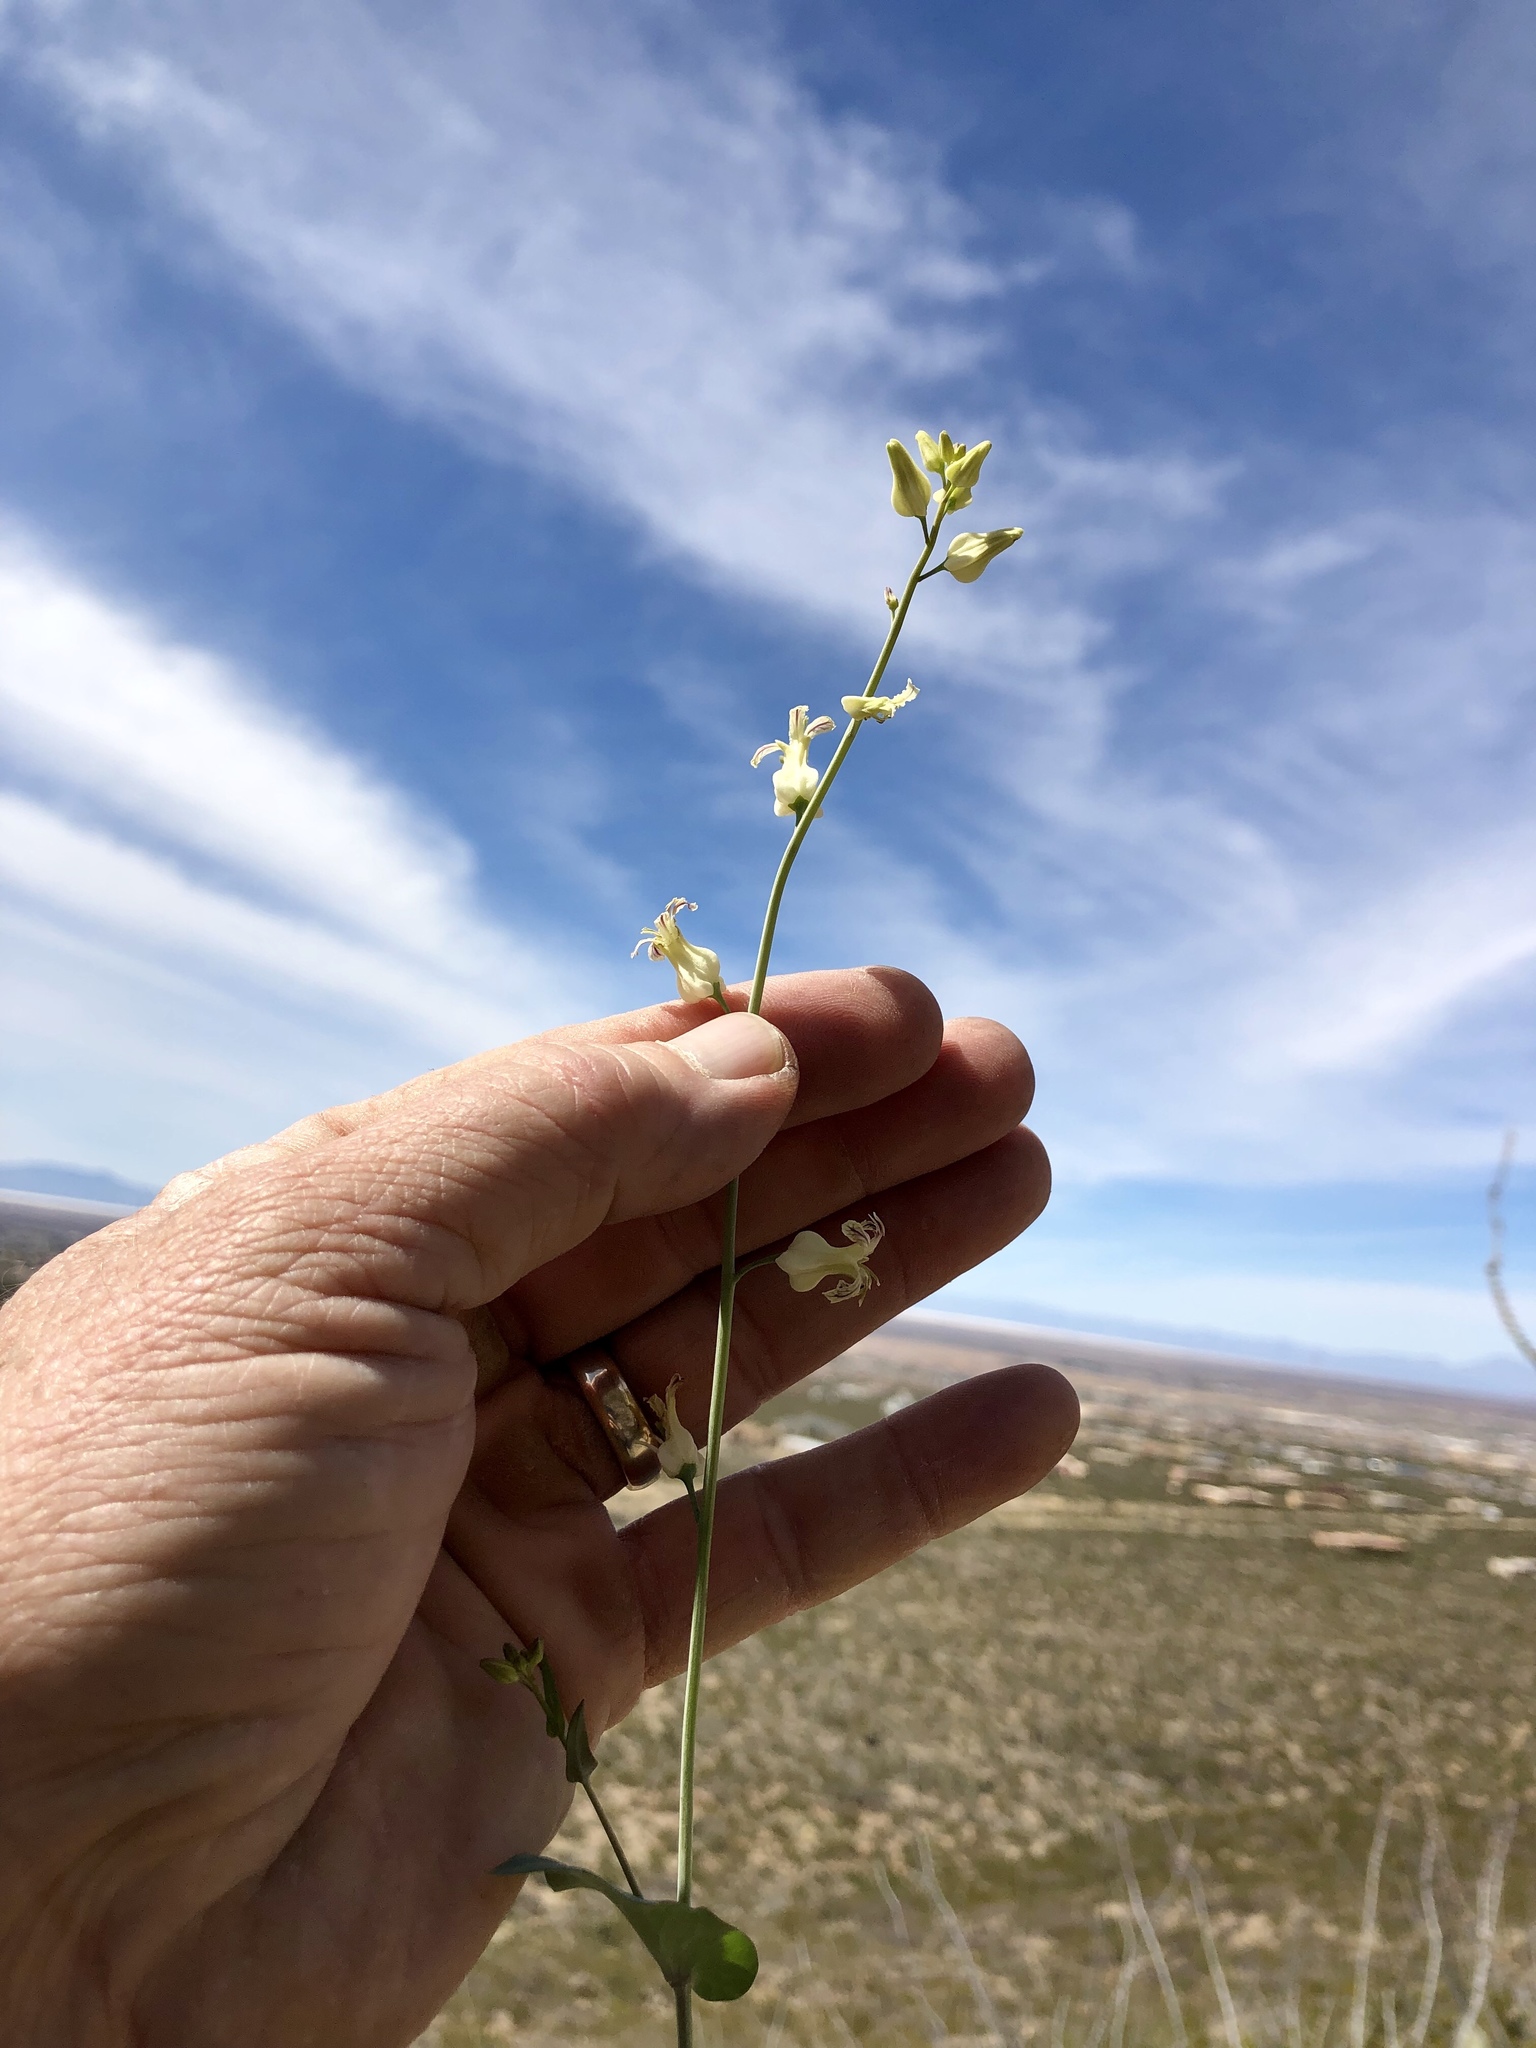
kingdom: Plantae
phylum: Tracheophyta
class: Magnoliopsida
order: Brassicales
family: Brassicaceae
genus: Streptanthus
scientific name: Streptanthus carinatus
